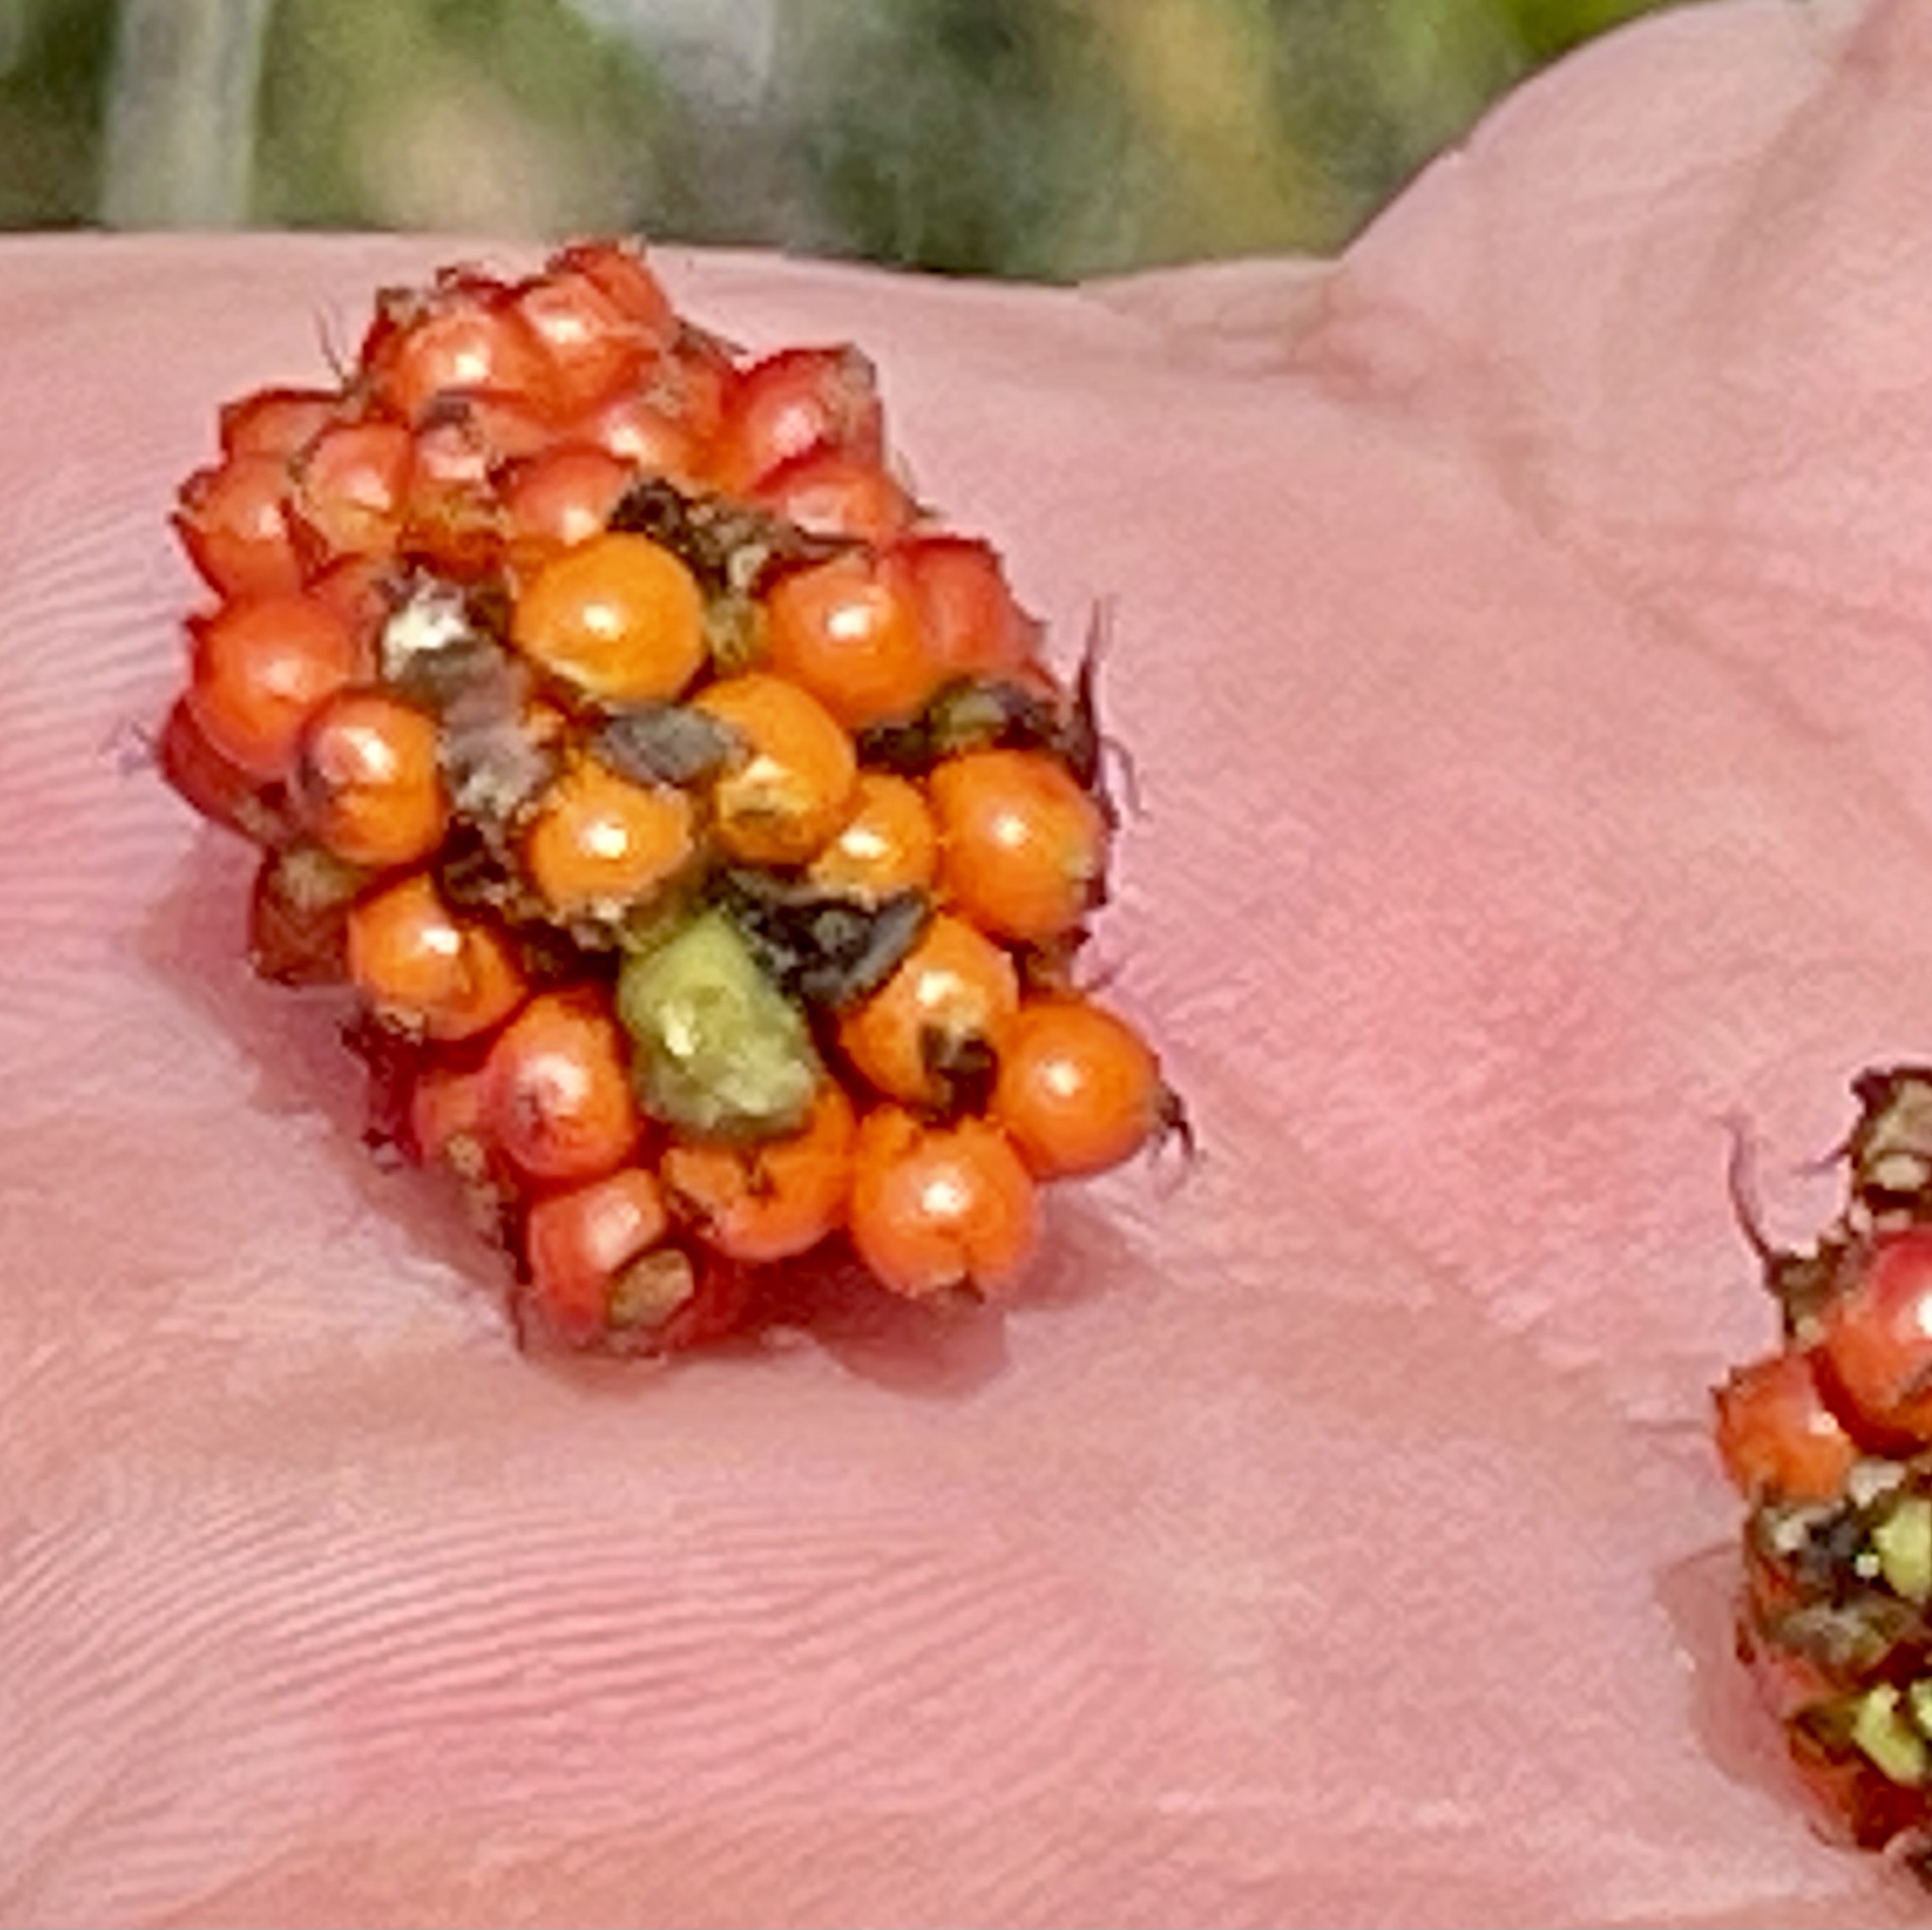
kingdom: Plantae
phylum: Tracheophyta
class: Magnoliopsida
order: Gunnerales
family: Gunneraceae
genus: Gunnera
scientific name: Gunnera magellanica
